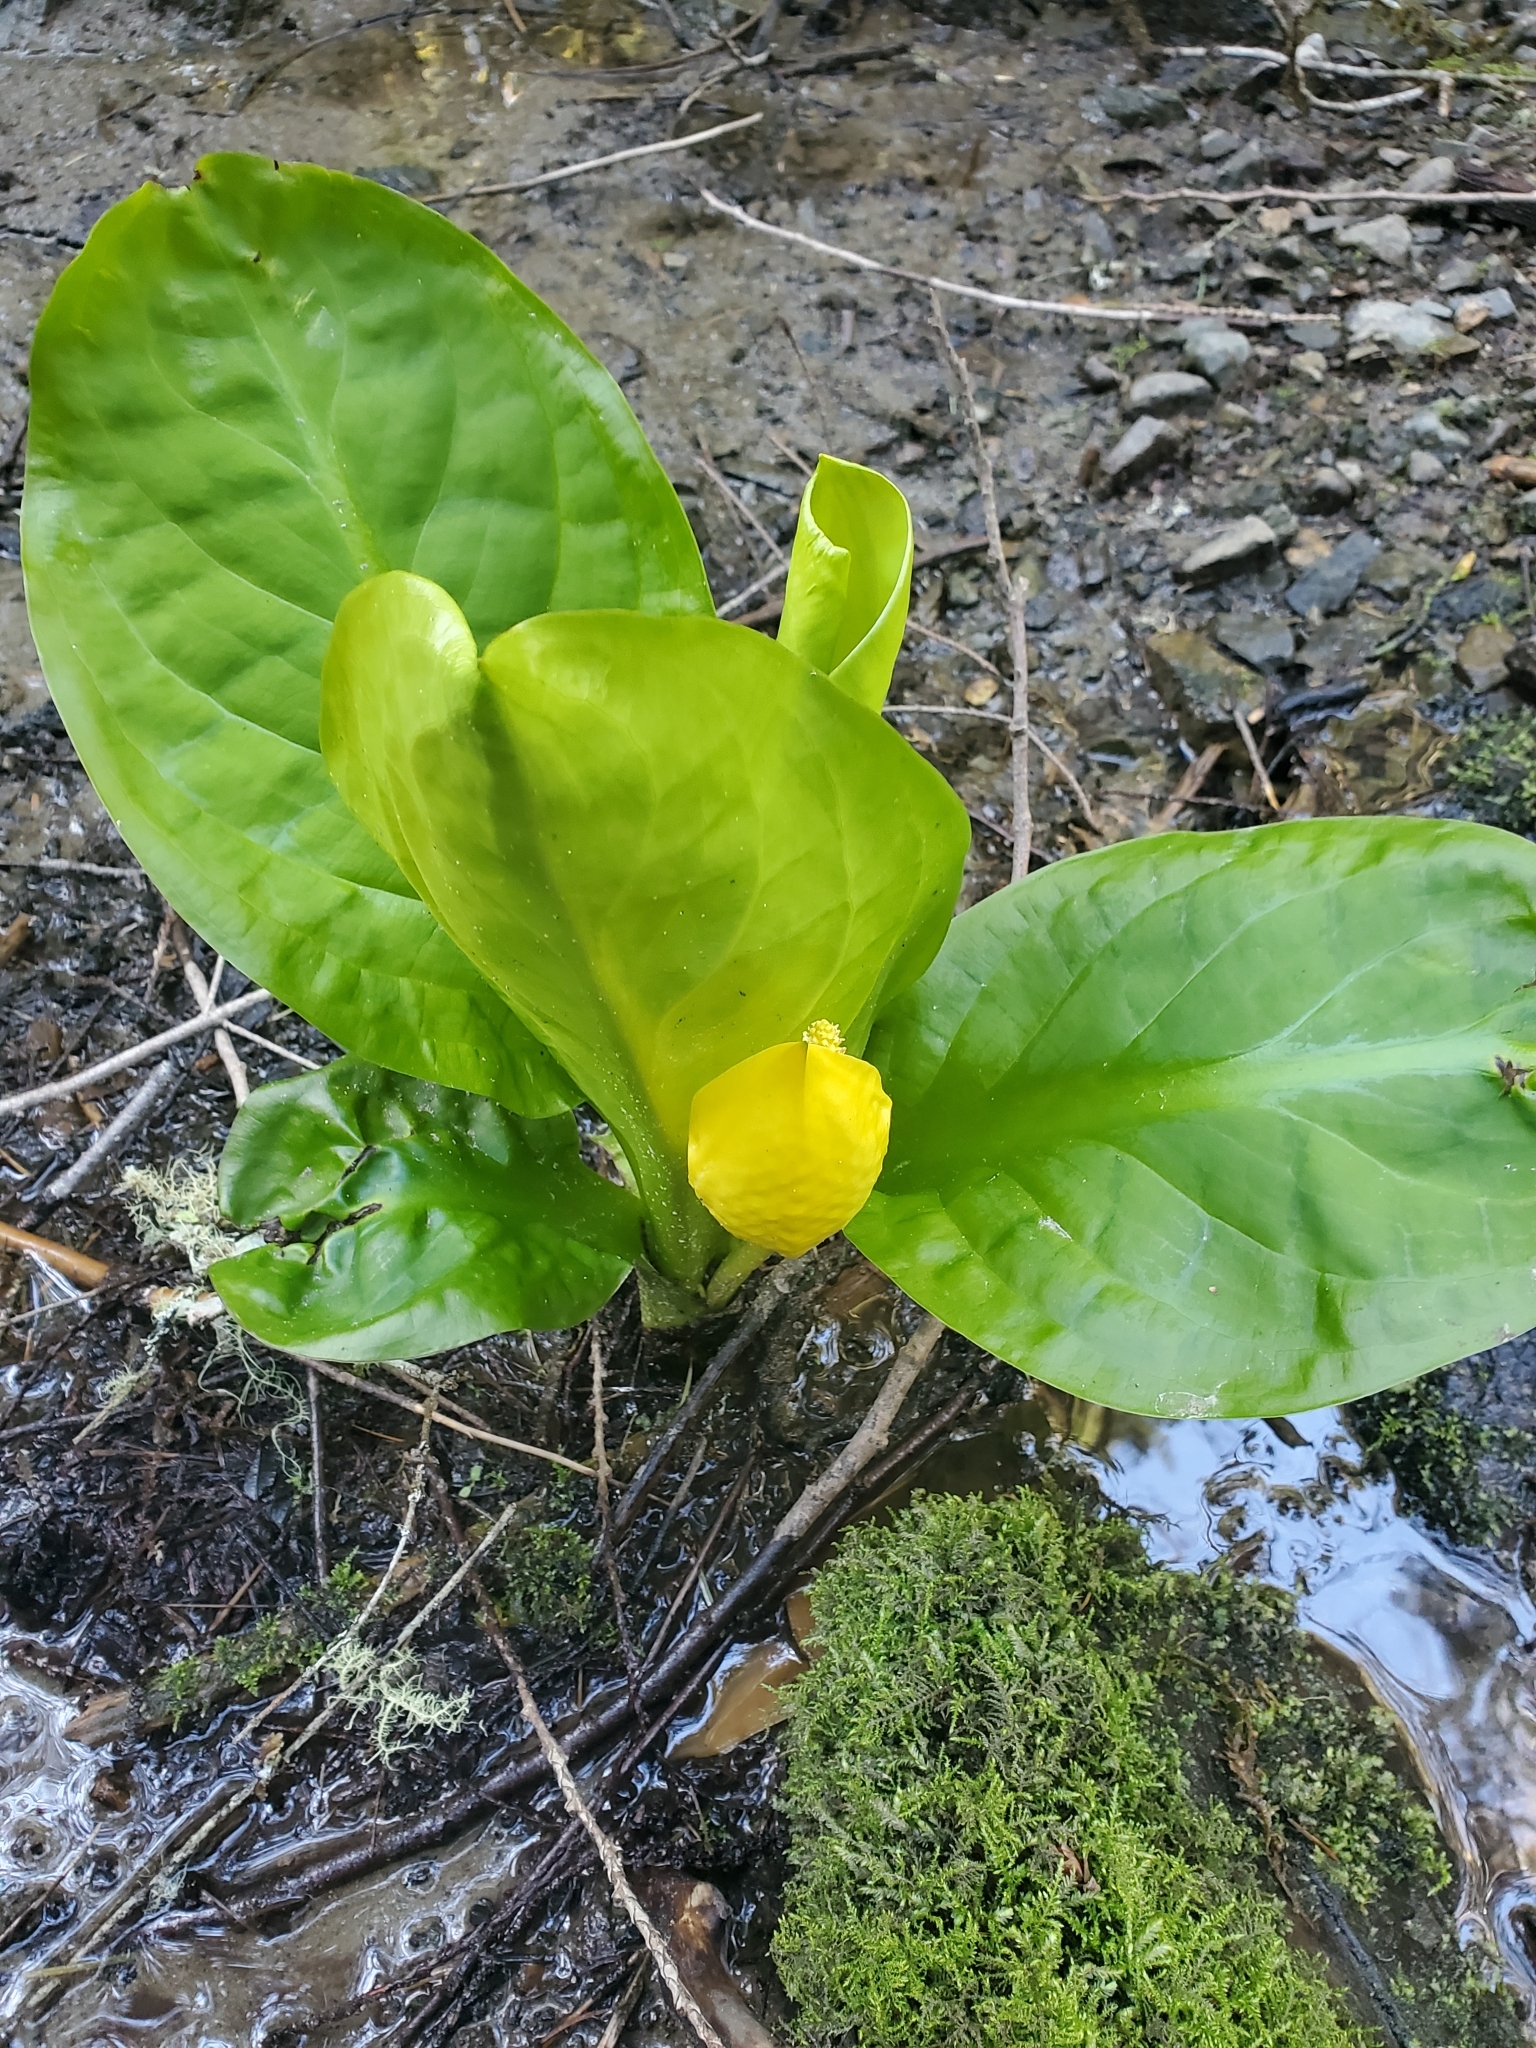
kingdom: Plantae
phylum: Tracheophyta
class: Liliopsida
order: Alismatales
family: Araceae
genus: Lysichiton
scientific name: Lysichiton americanus
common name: American skunk cabbage
